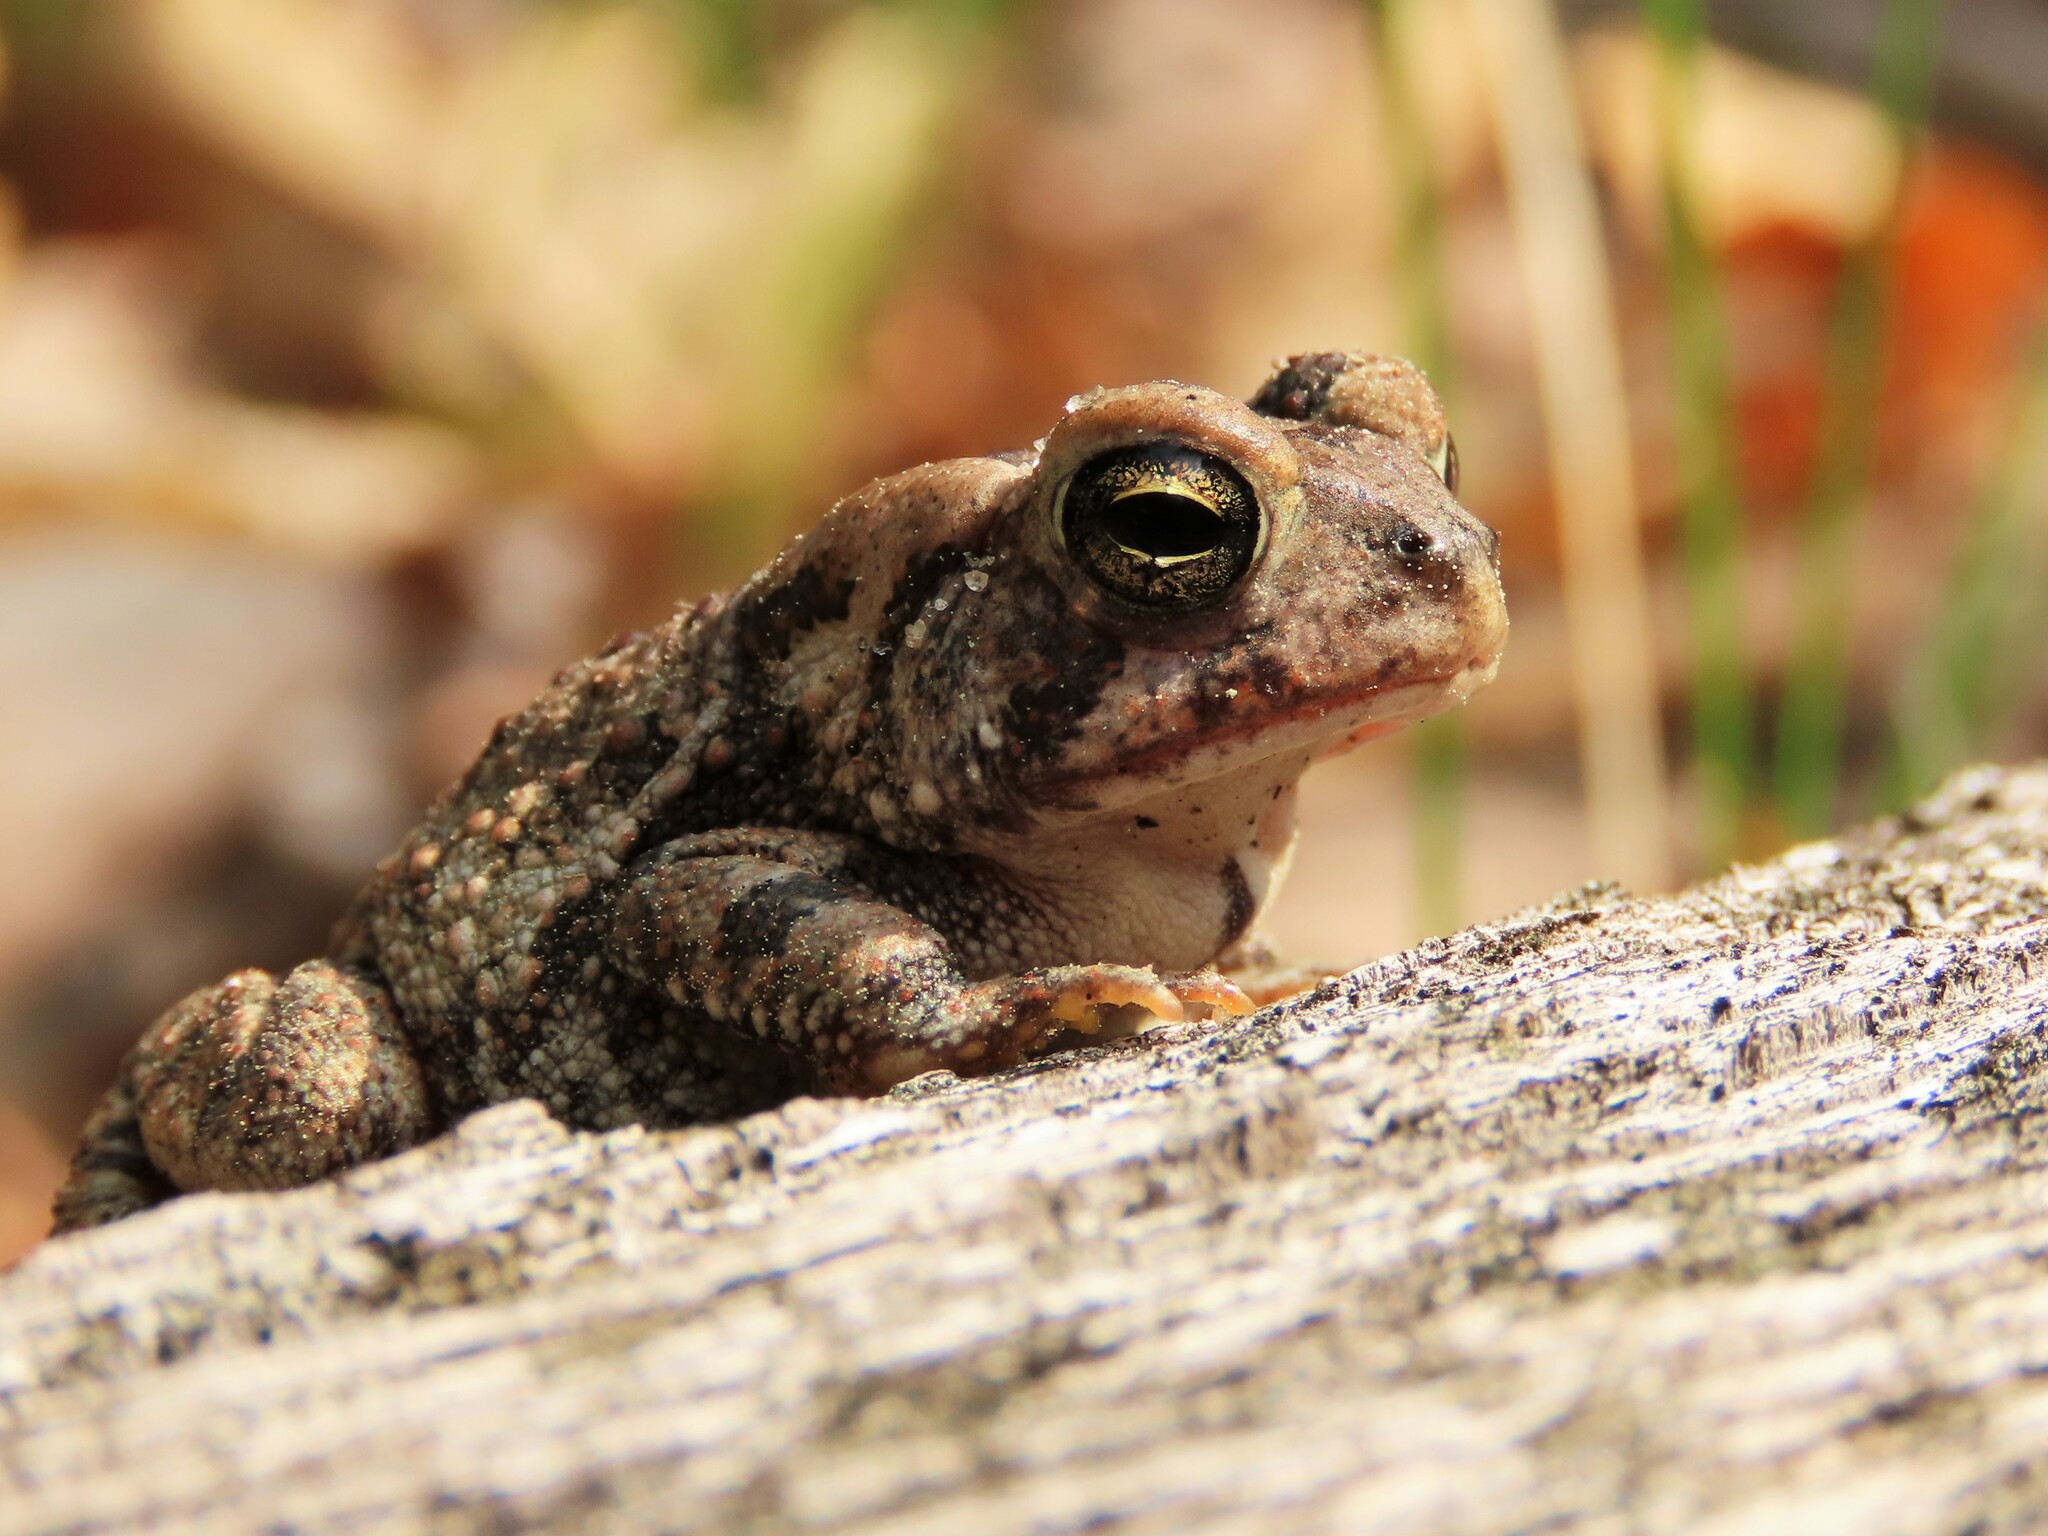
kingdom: Animalia
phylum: Chordata
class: Amphibia
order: Anura
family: Bufonidae
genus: Anaxyrus
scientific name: Anaxyrus fowleri
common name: Fowler's toad
